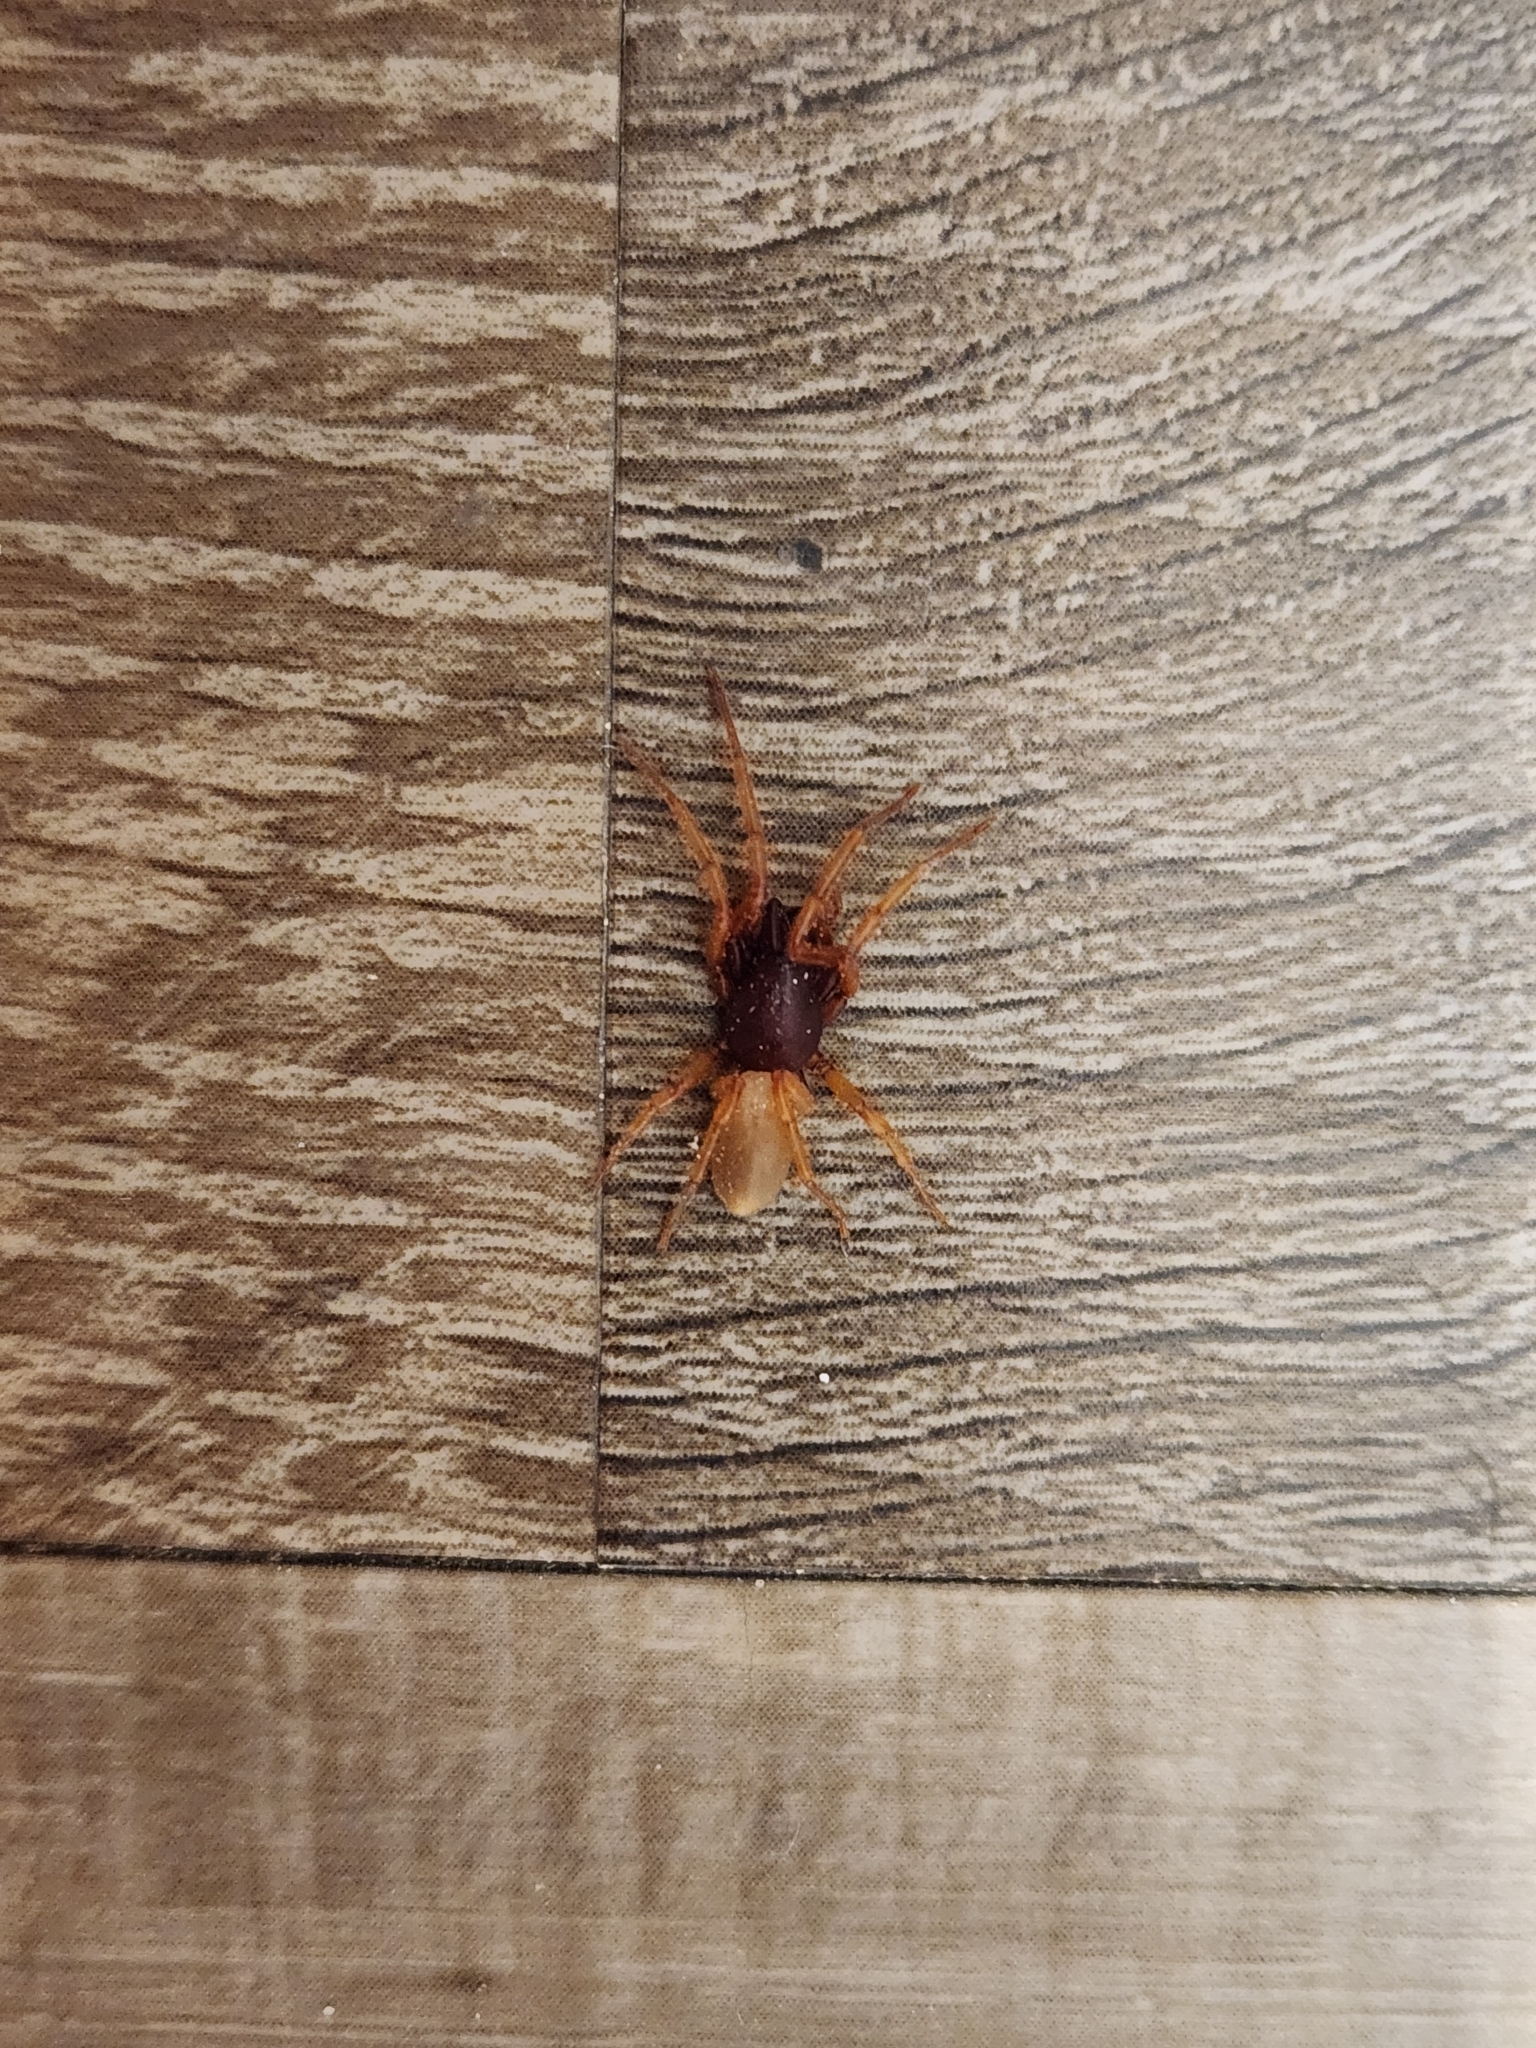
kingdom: Animalia
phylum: Arthropoda
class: Arachnida
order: Araneae
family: Dysderidae
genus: Dysdera
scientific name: Dysdera crocata
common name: Woodlouse spider
